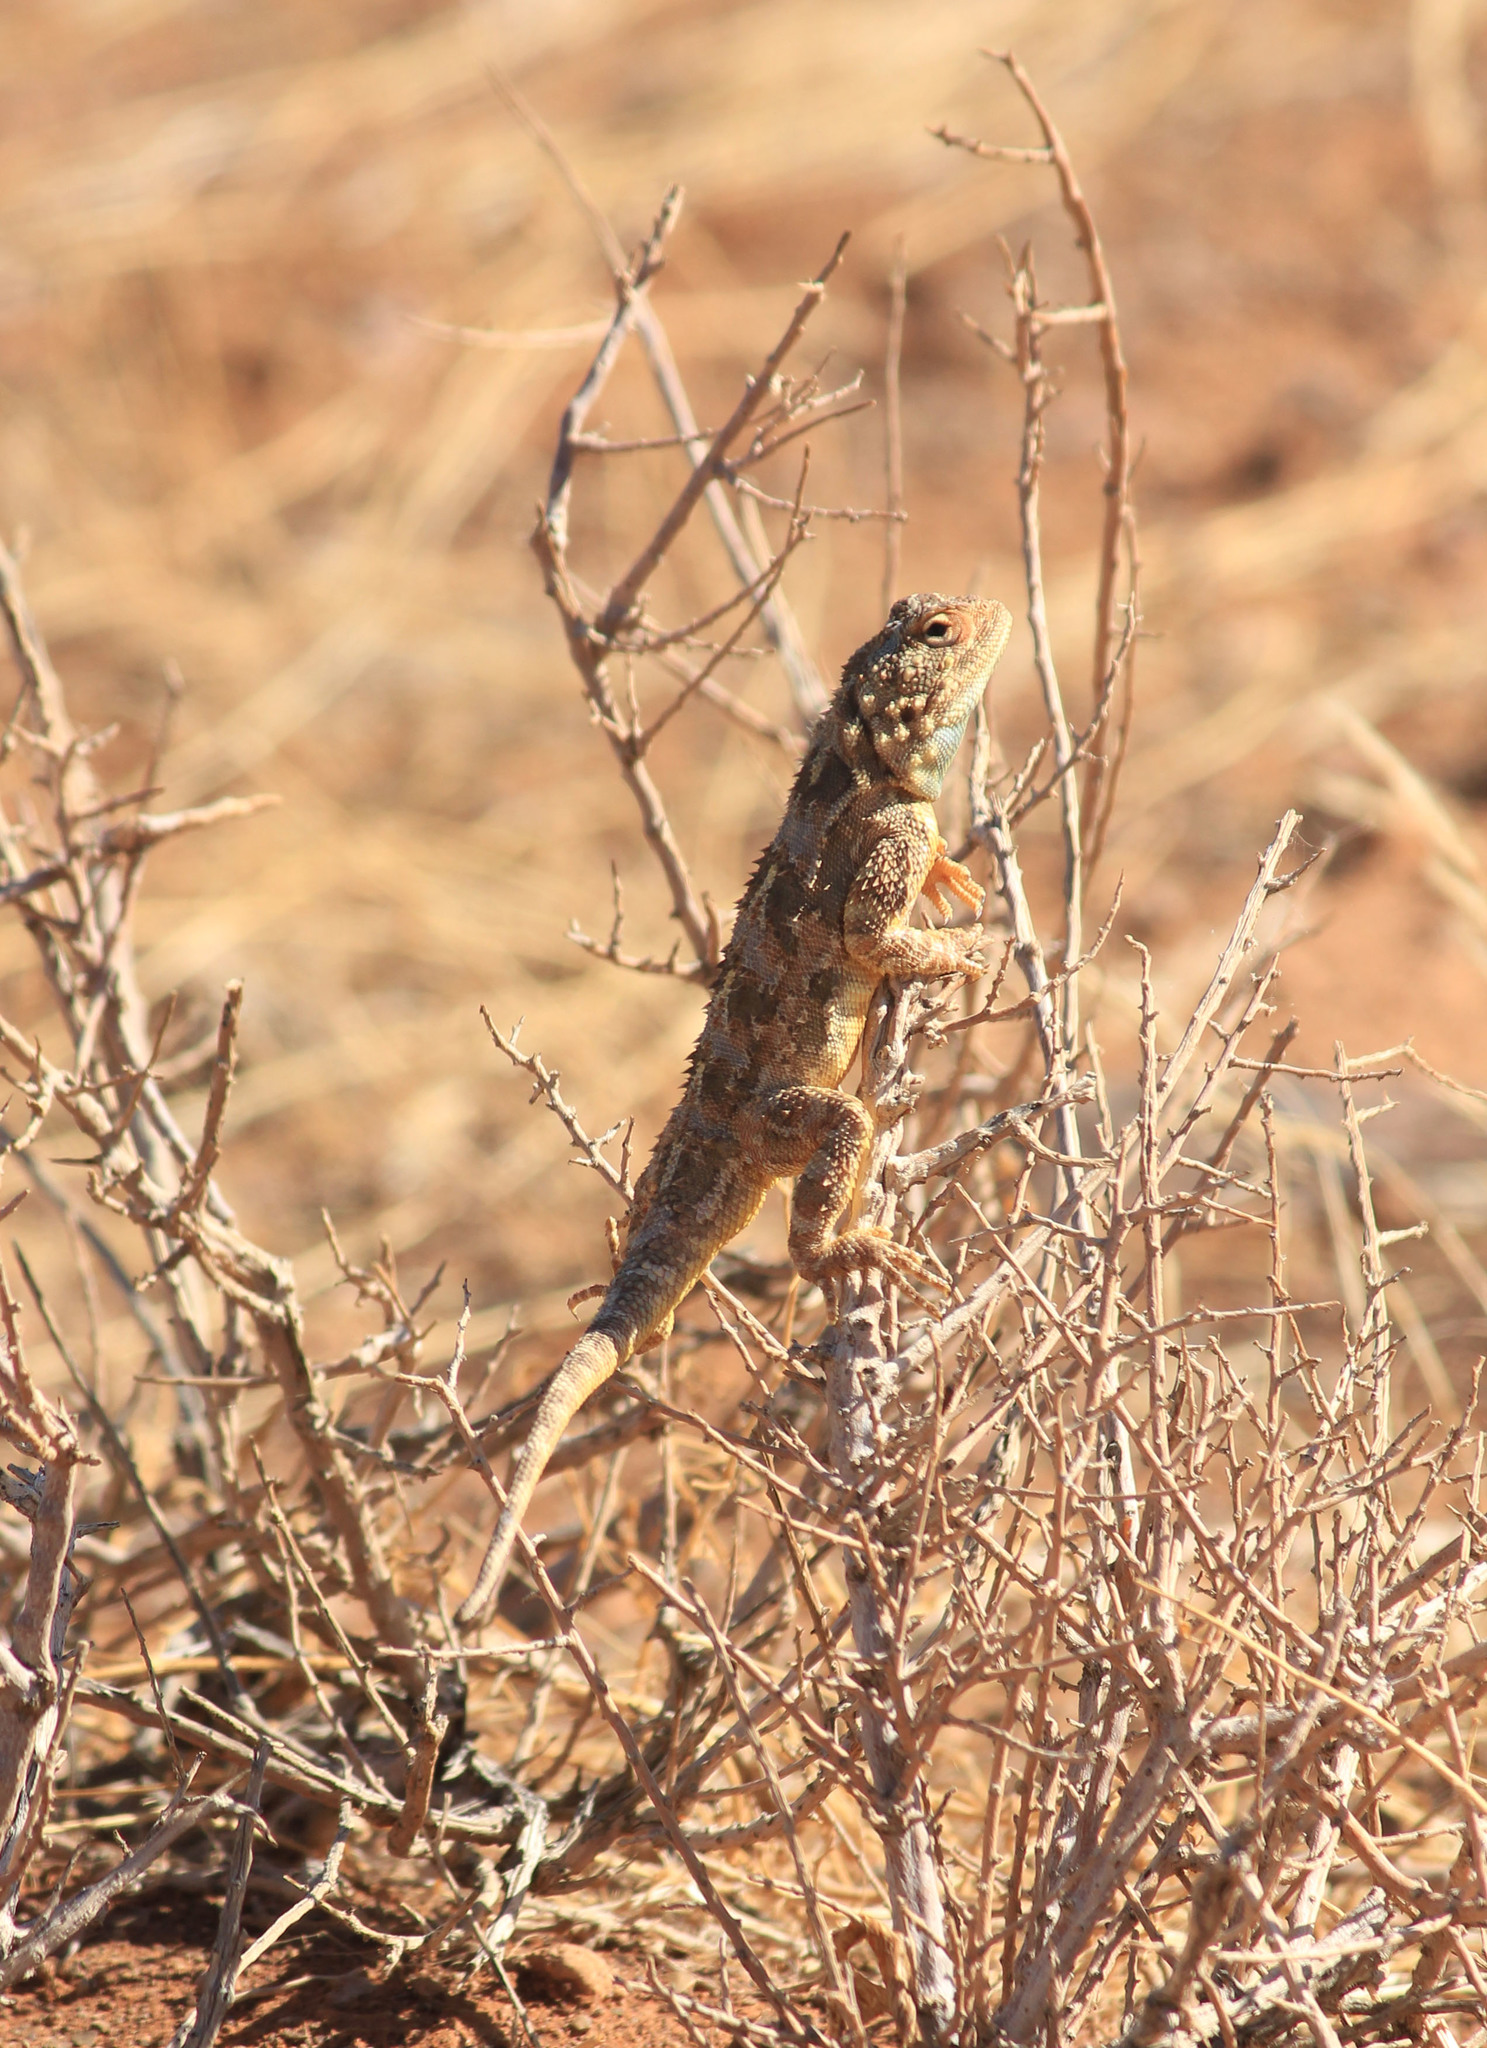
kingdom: Animalia
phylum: Chordata
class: Squamata
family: Agamidae
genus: Agama
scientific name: Agama hispida
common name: Common spiny agama
